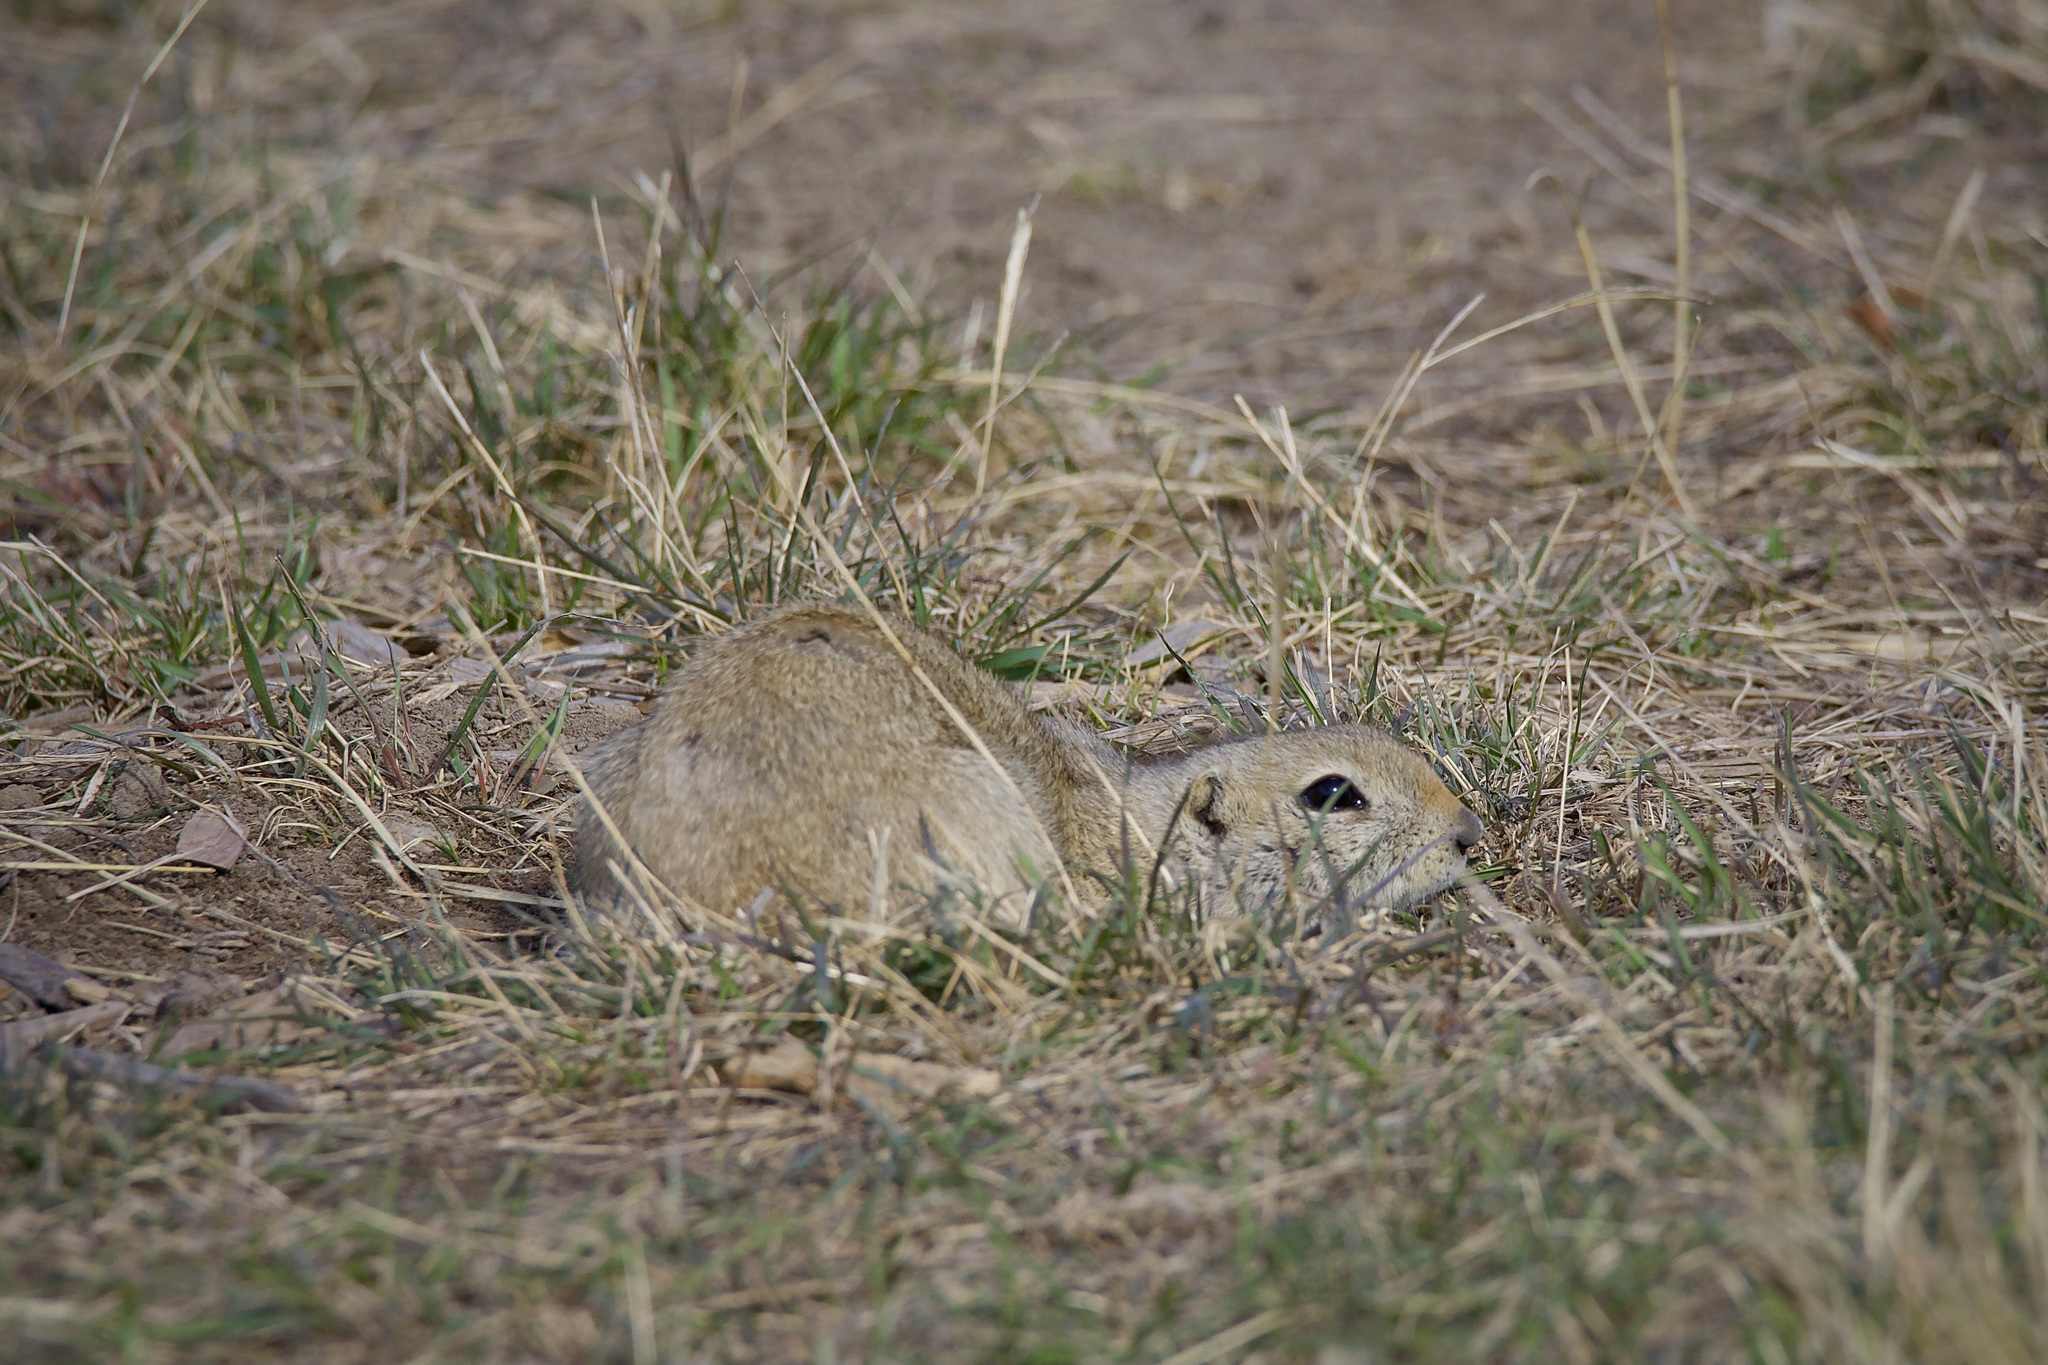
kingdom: Animalia
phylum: Chordata
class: Mammalia
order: Rodentia
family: Sciuridae
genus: Urocitellus
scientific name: Urocitellus richardsonii
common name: Richardson's ground squirrel
